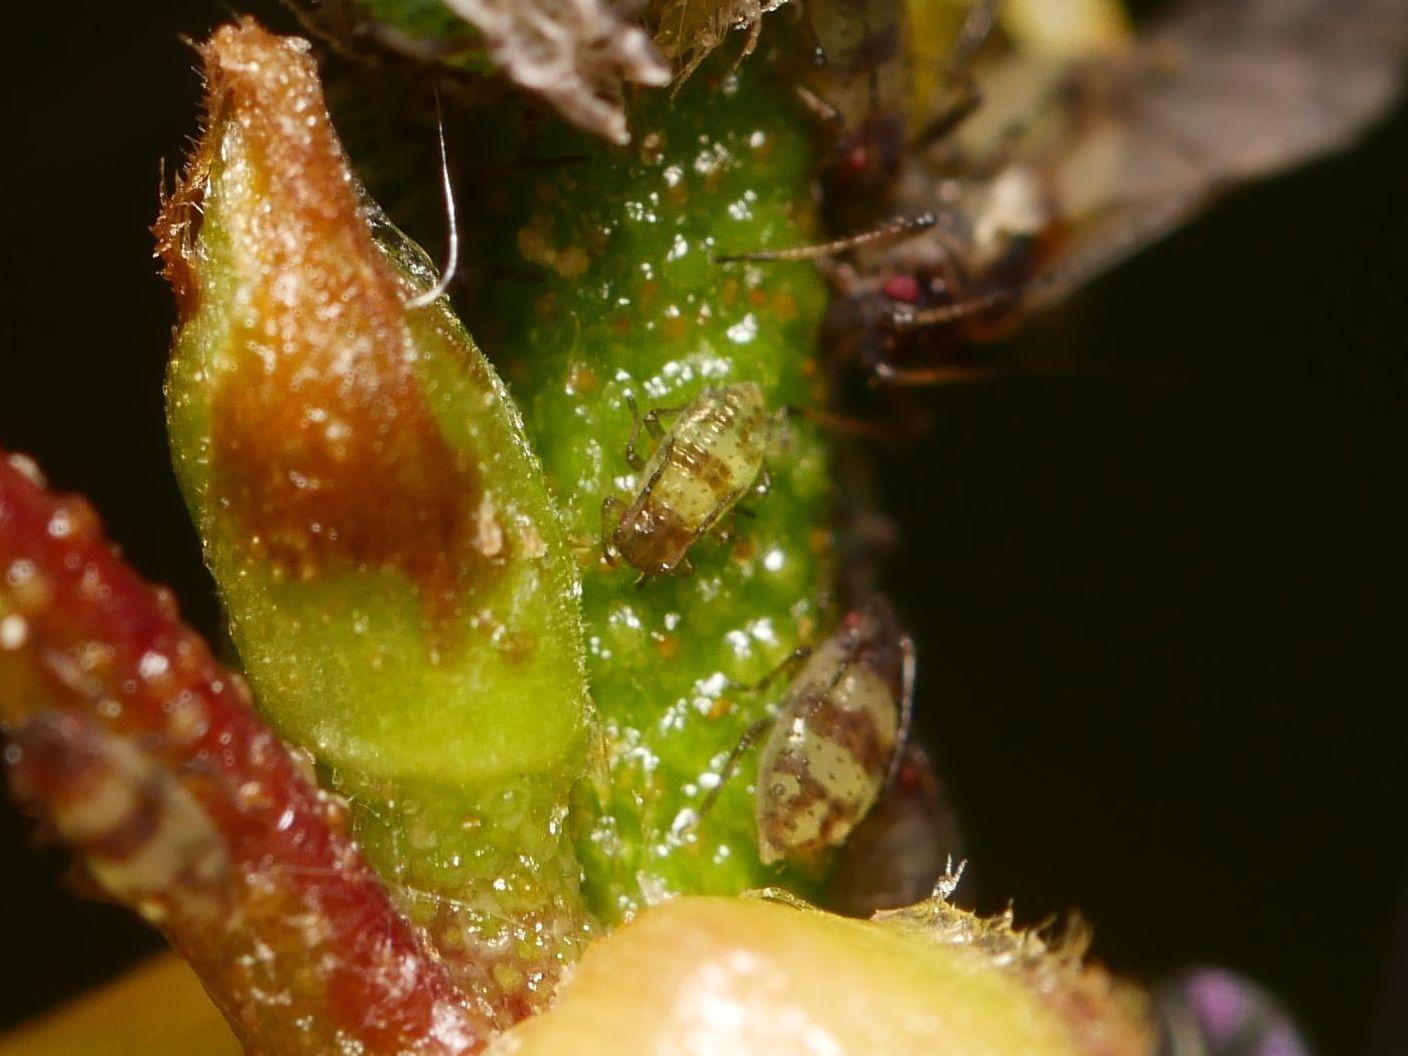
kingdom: Animalia
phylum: Arthropoda
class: Insecta
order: Hemiptera
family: Aphididae
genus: Callipterinella
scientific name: Callipterinella tuberculata
